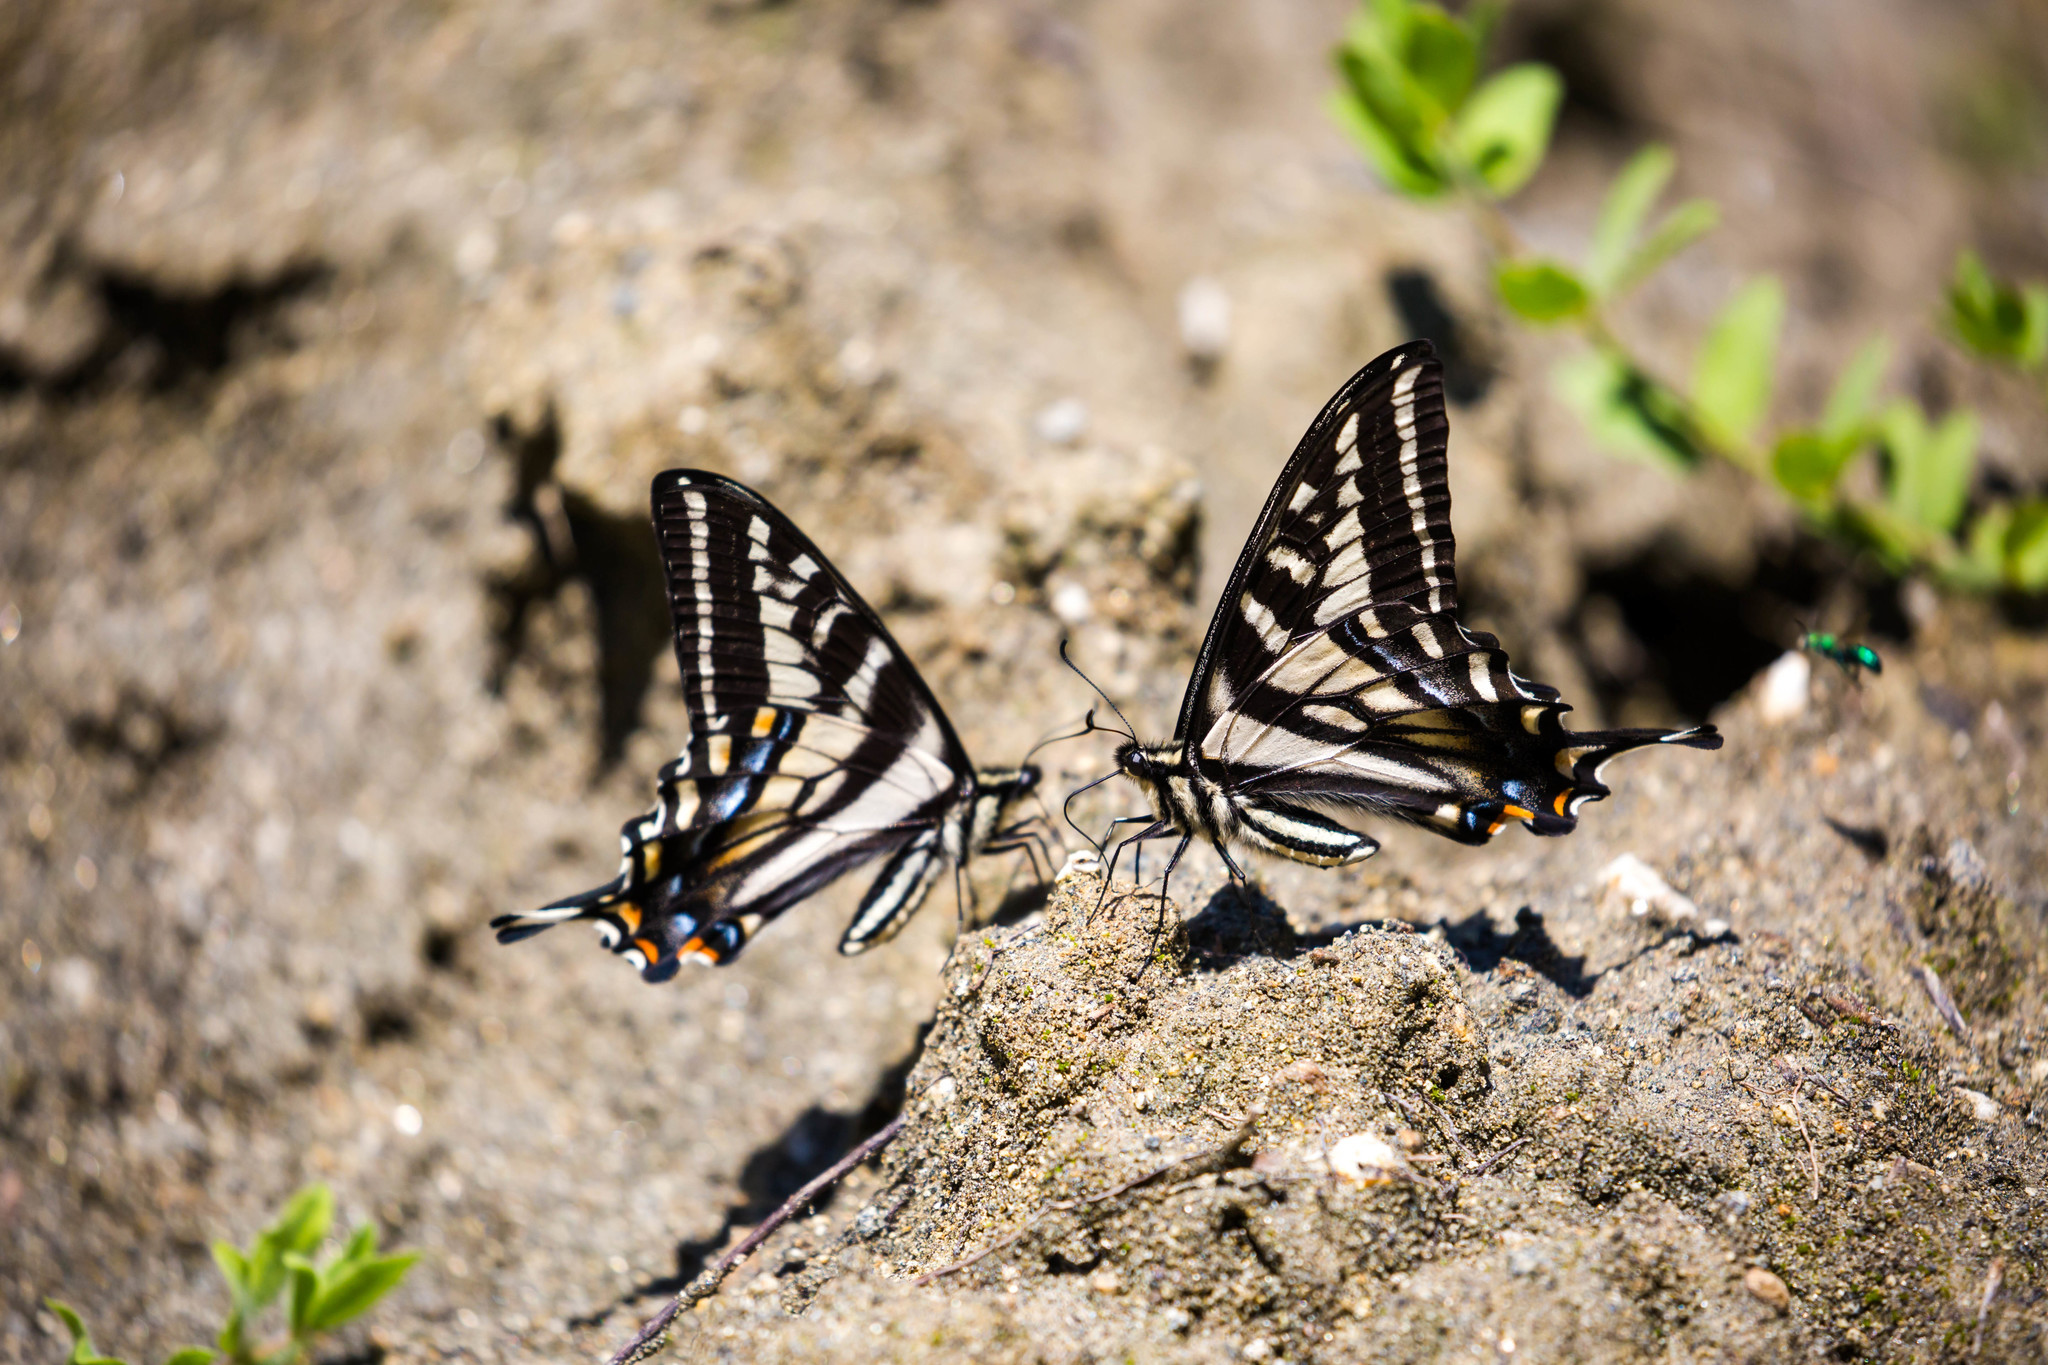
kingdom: Animalia
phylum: Arthropoda
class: Insecta
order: Lepidoptera
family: Papilionidae
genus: Papilio
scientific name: Papilio eurymedon
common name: Pale tiger swallowtail
